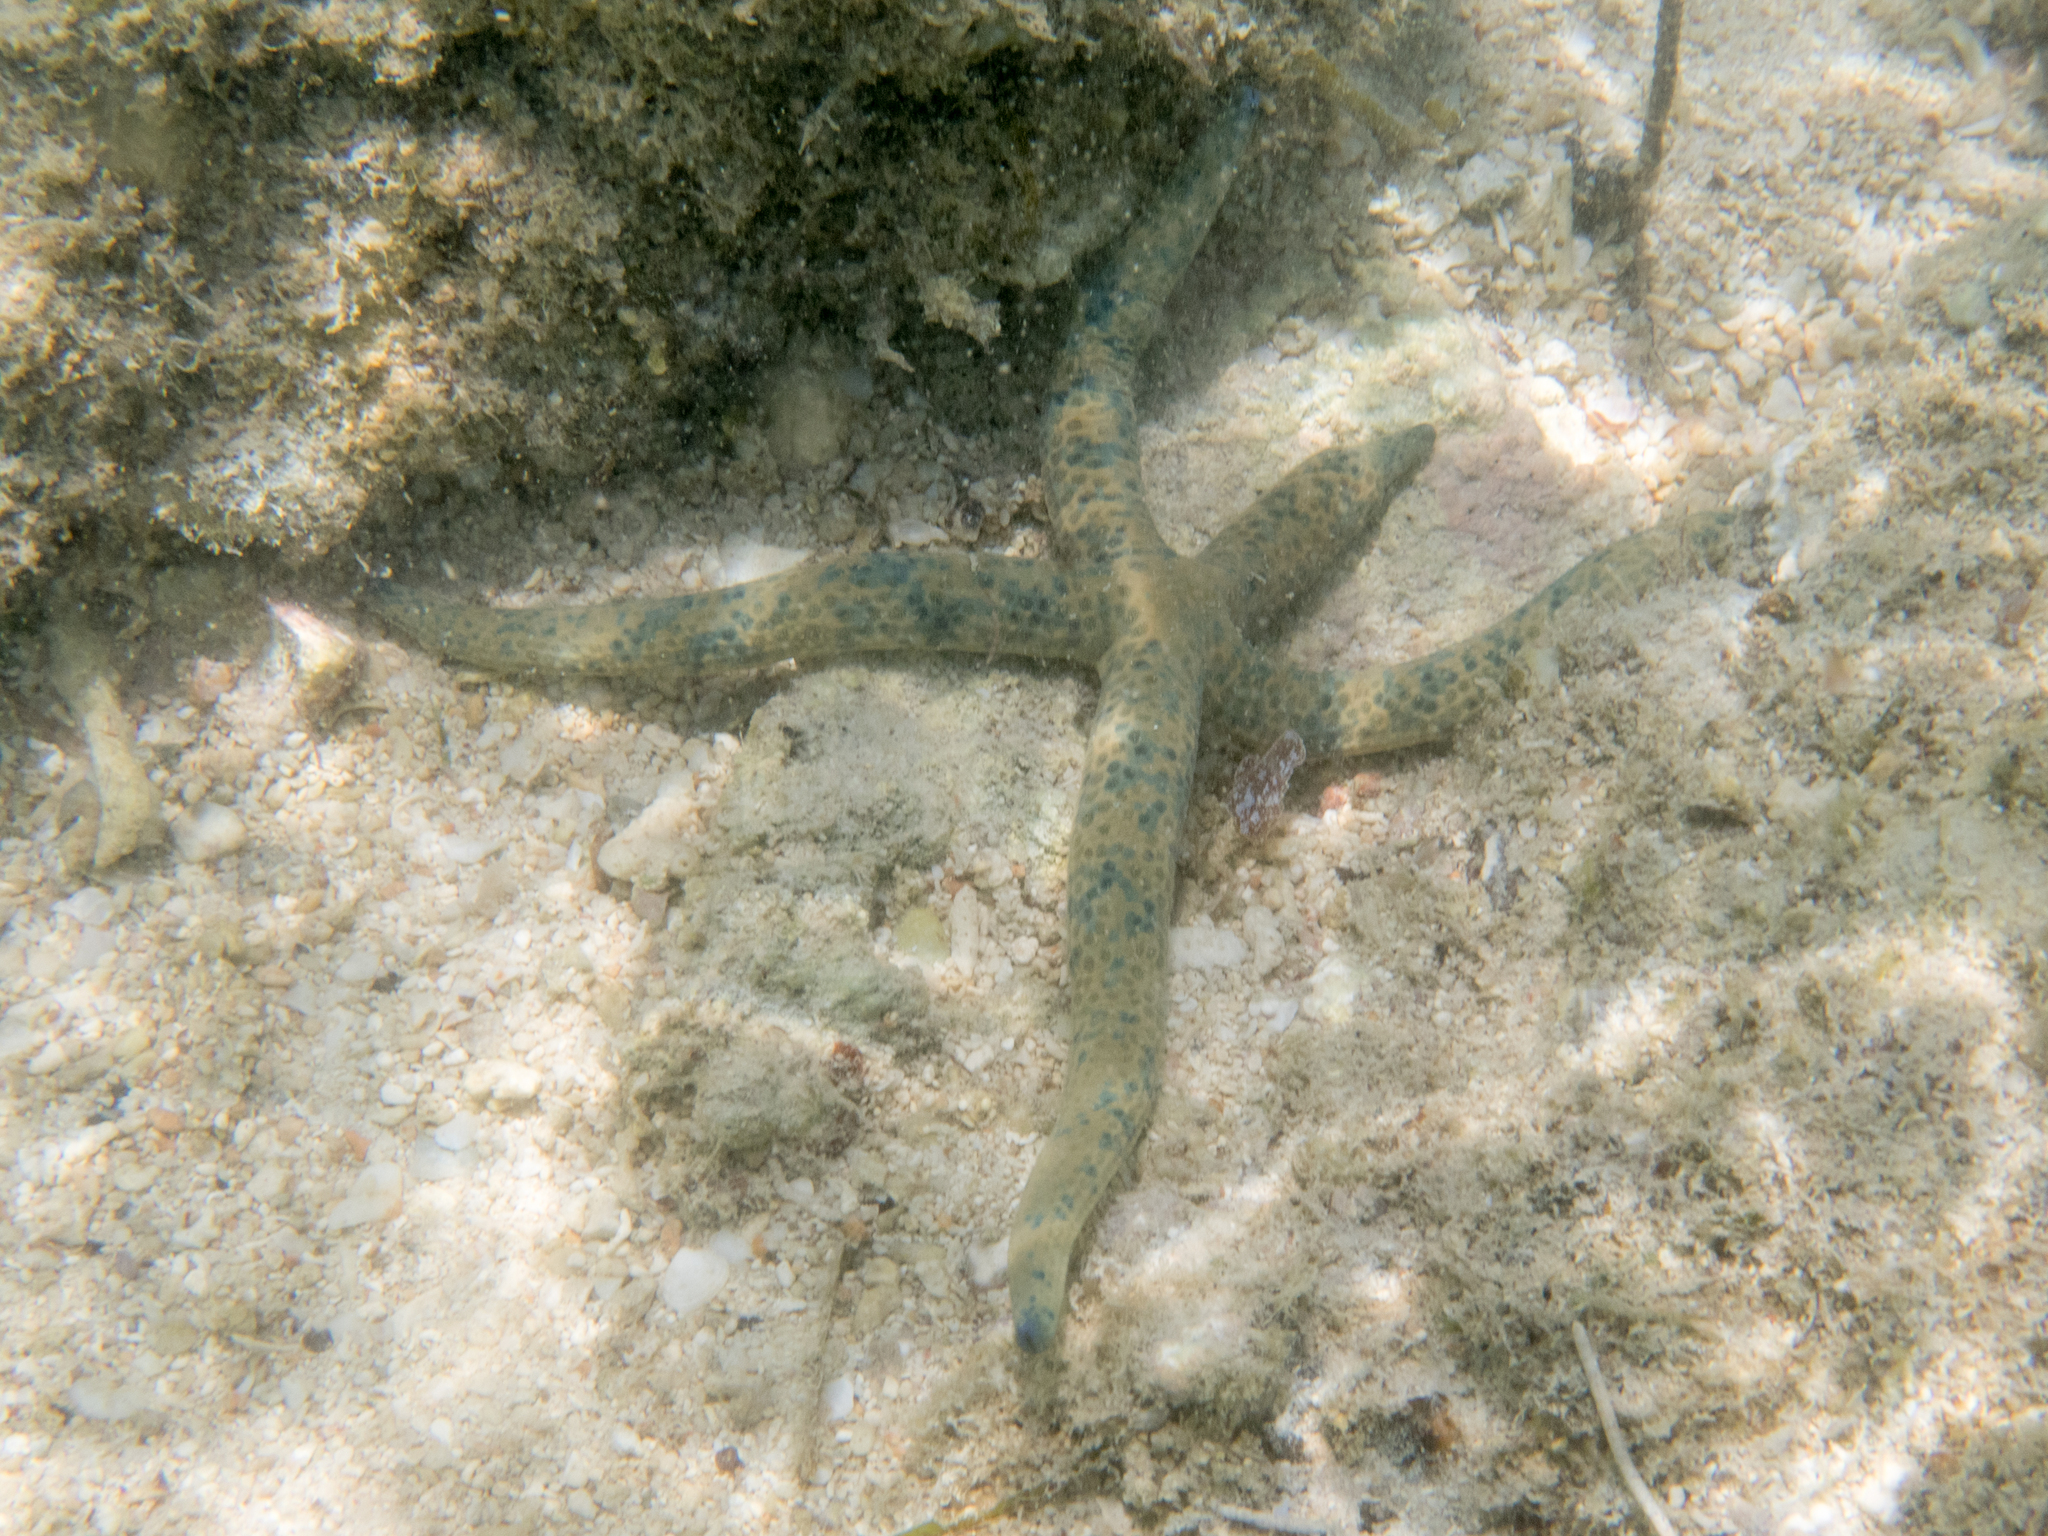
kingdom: Animalia
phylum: Echinodermata
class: Asteroidea
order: Valvatida
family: Ophidiasteridae
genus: Linckia
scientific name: Linckia multifora
